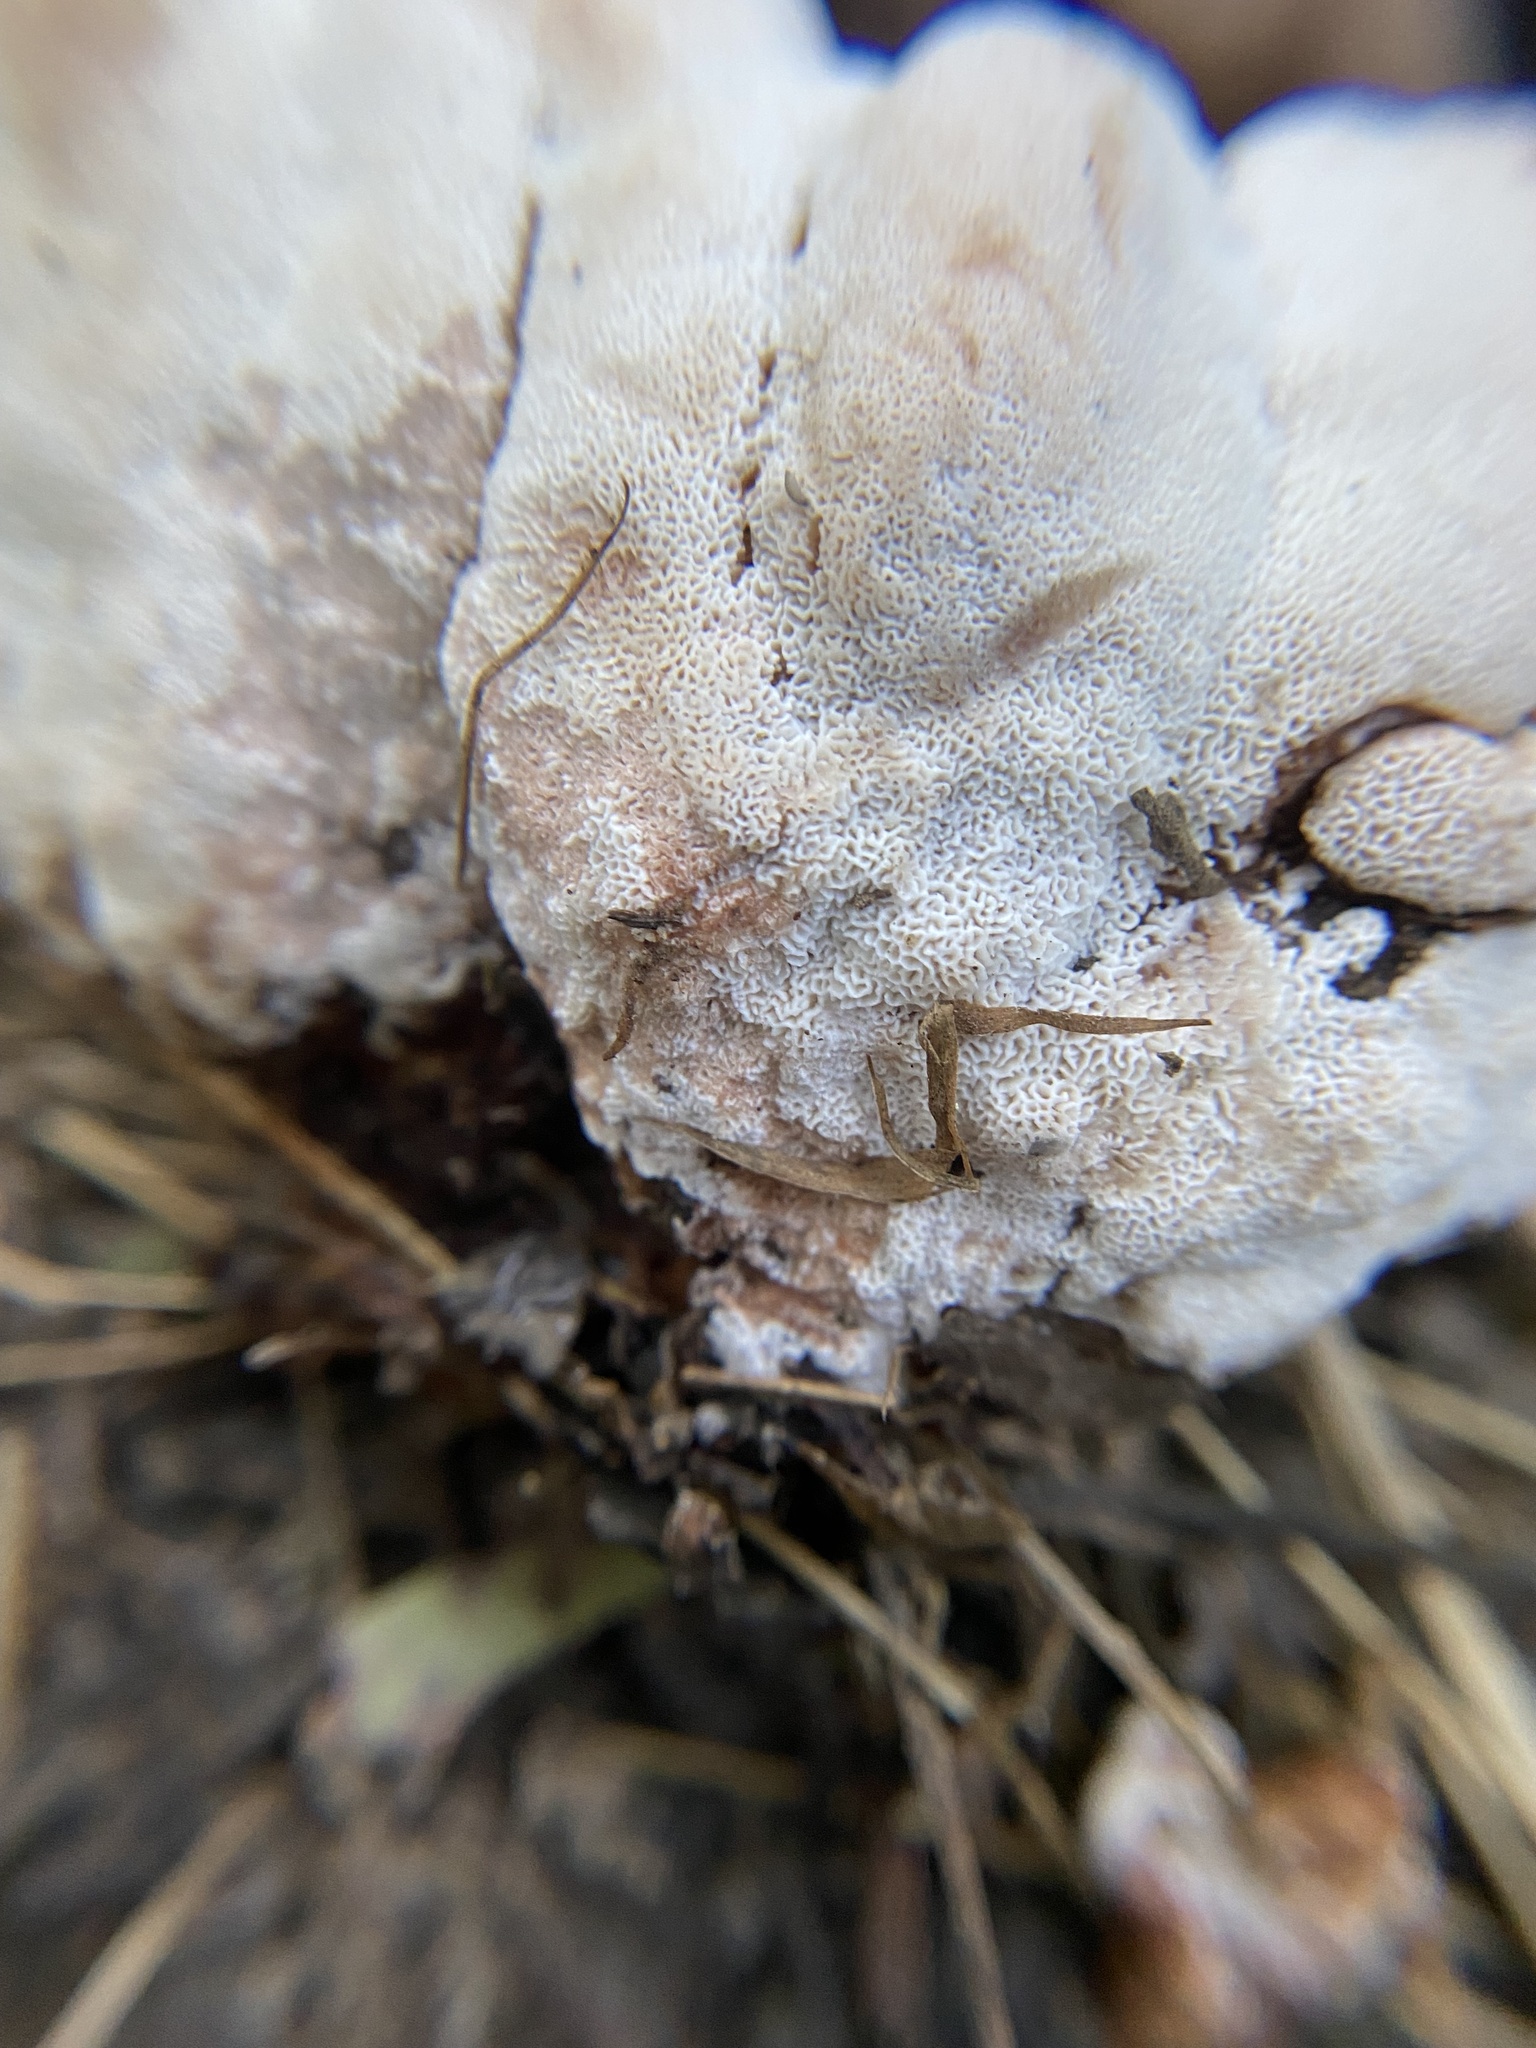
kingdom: Fungi
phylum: Basidiomycota
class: Agaricomycetes
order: Polyporales
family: Podoscyphaceae
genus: Abortiporus
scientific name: Abortiporus biennis
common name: Blushing rosette
